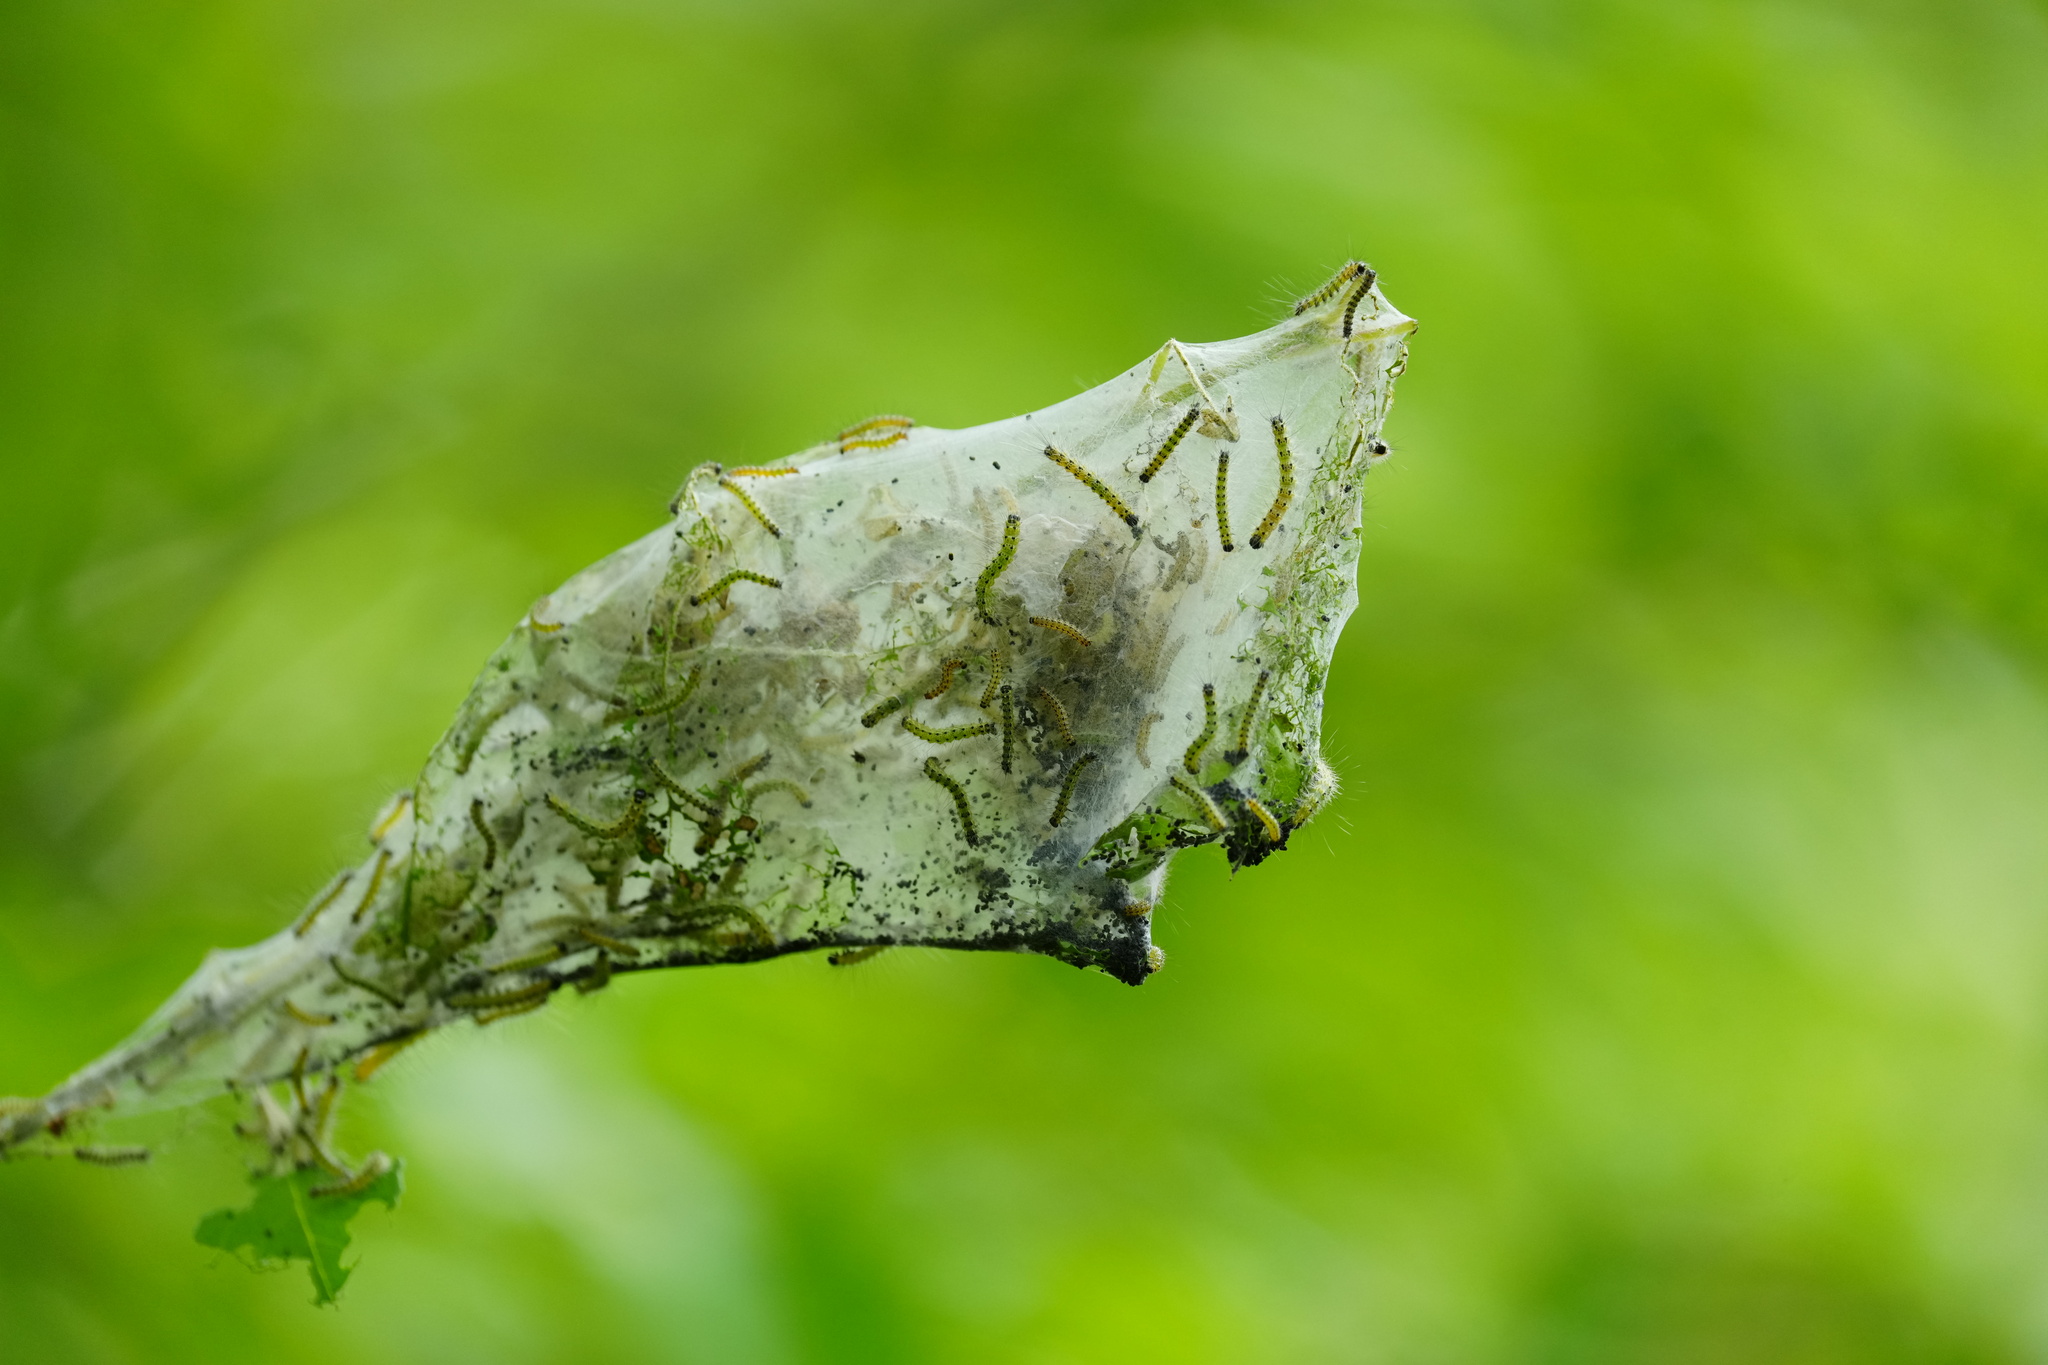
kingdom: Animalia
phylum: Arthropoda
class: Insecta
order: Lepidoptera
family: Erebidae
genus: Hyphantria
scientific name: Hyphantria cunea
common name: American white moth
